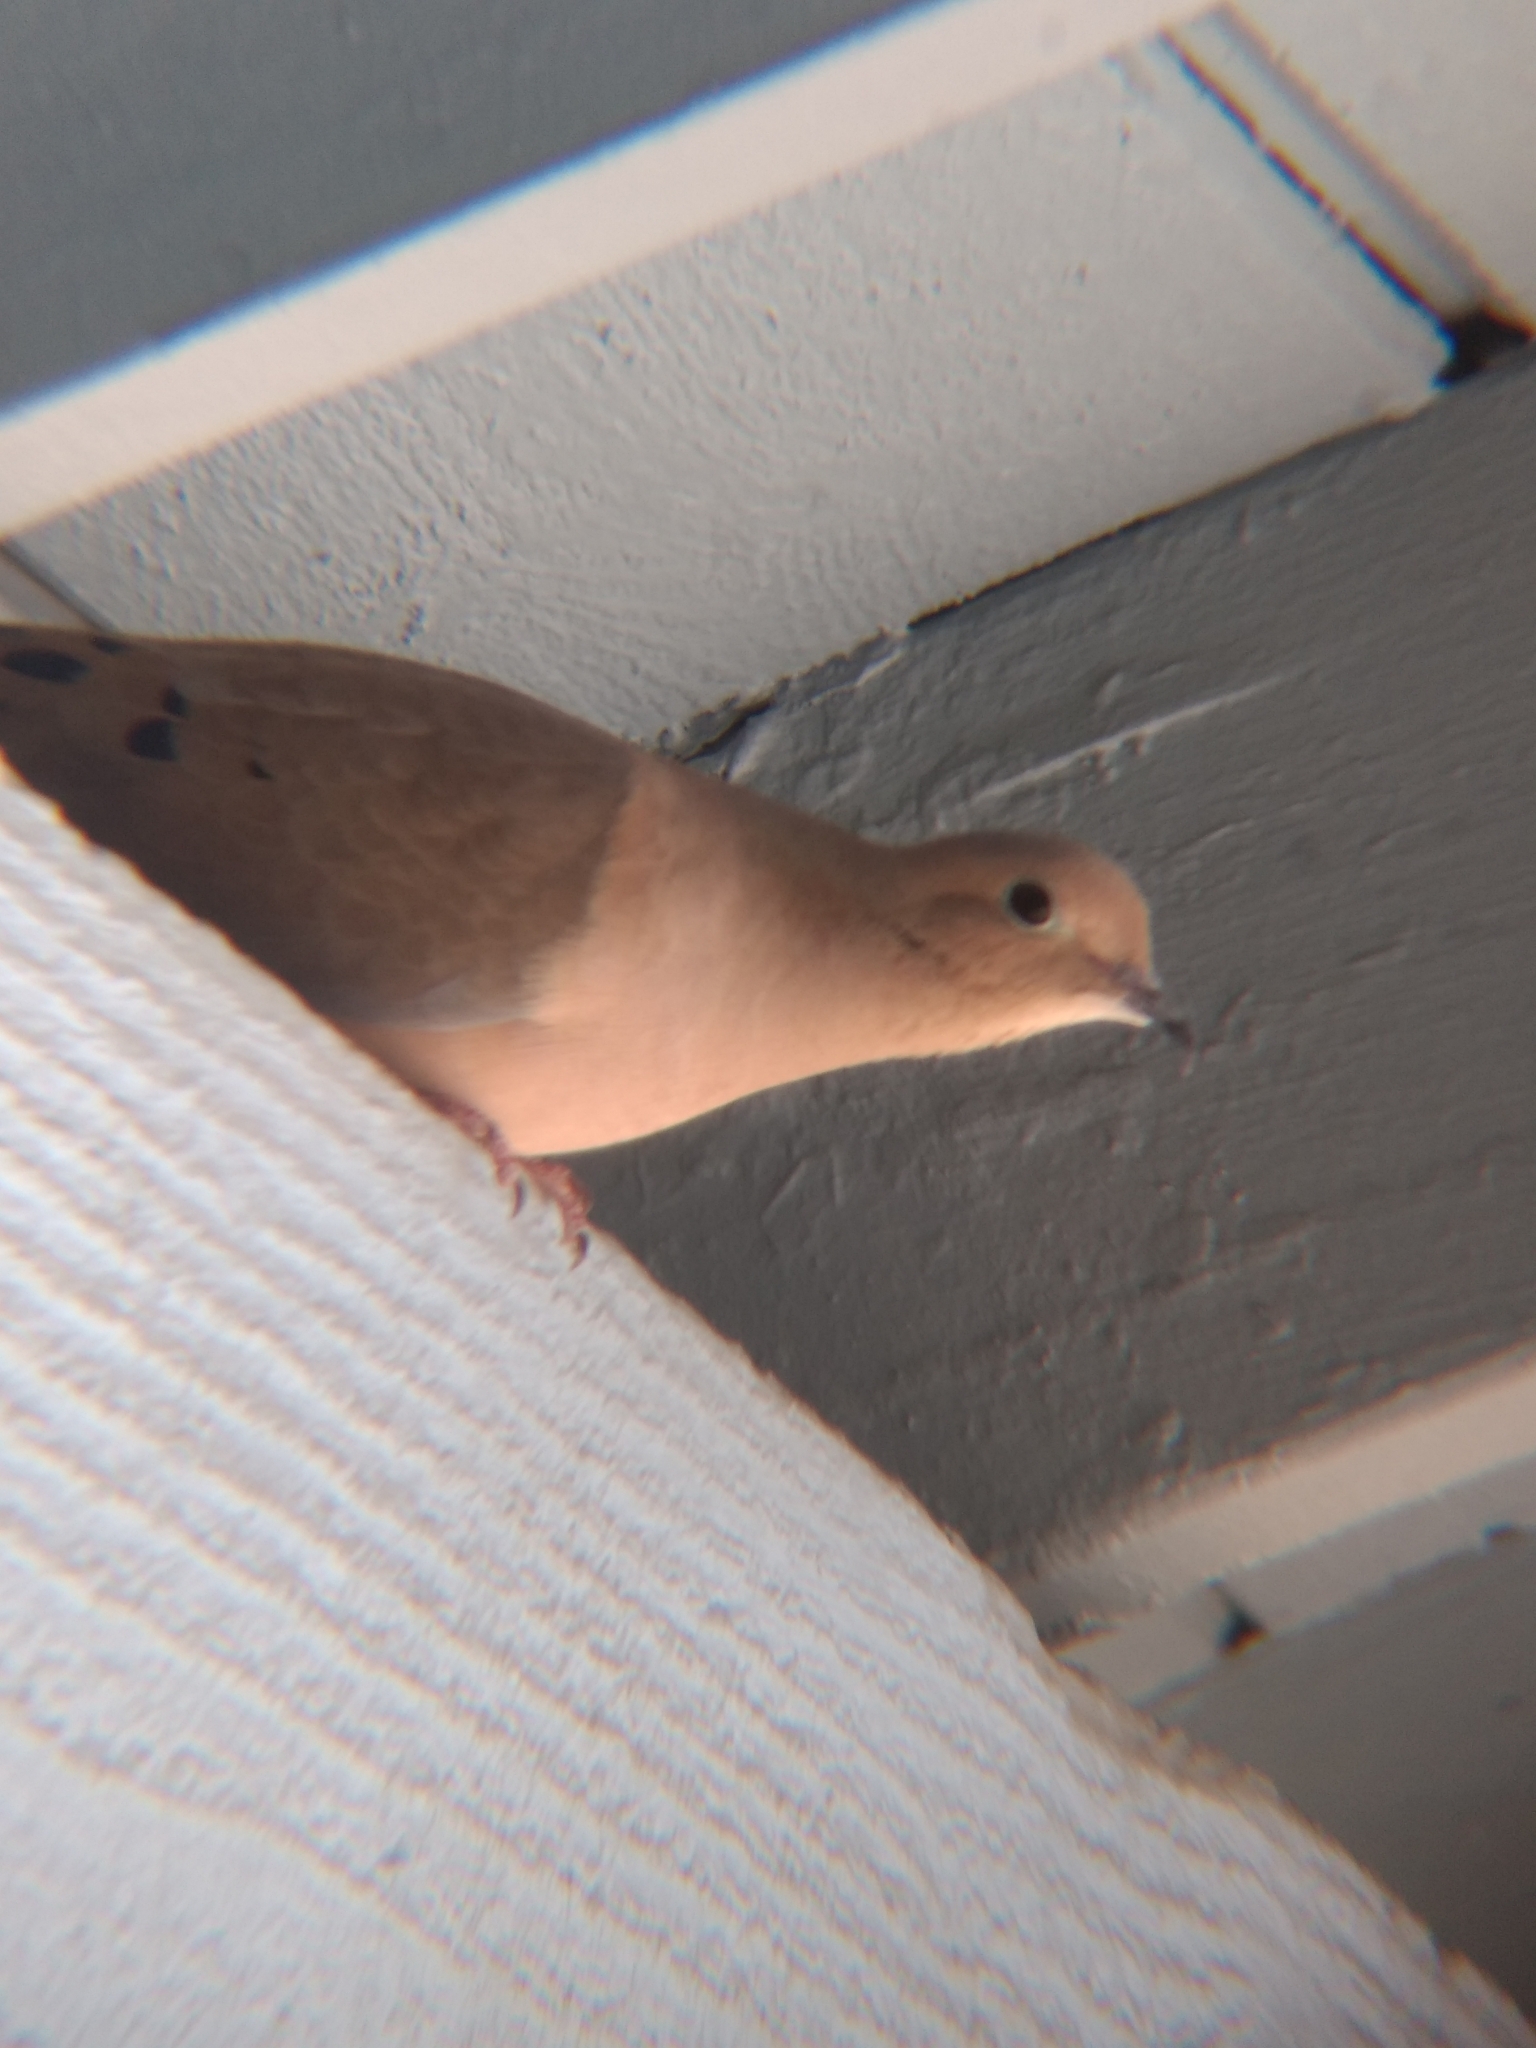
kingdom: Animalia
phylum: Chordata
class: Aves
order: Columbiformes
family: Columbidae
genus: Zenaida
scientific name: Zenaida macroura
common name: Mourning dove
